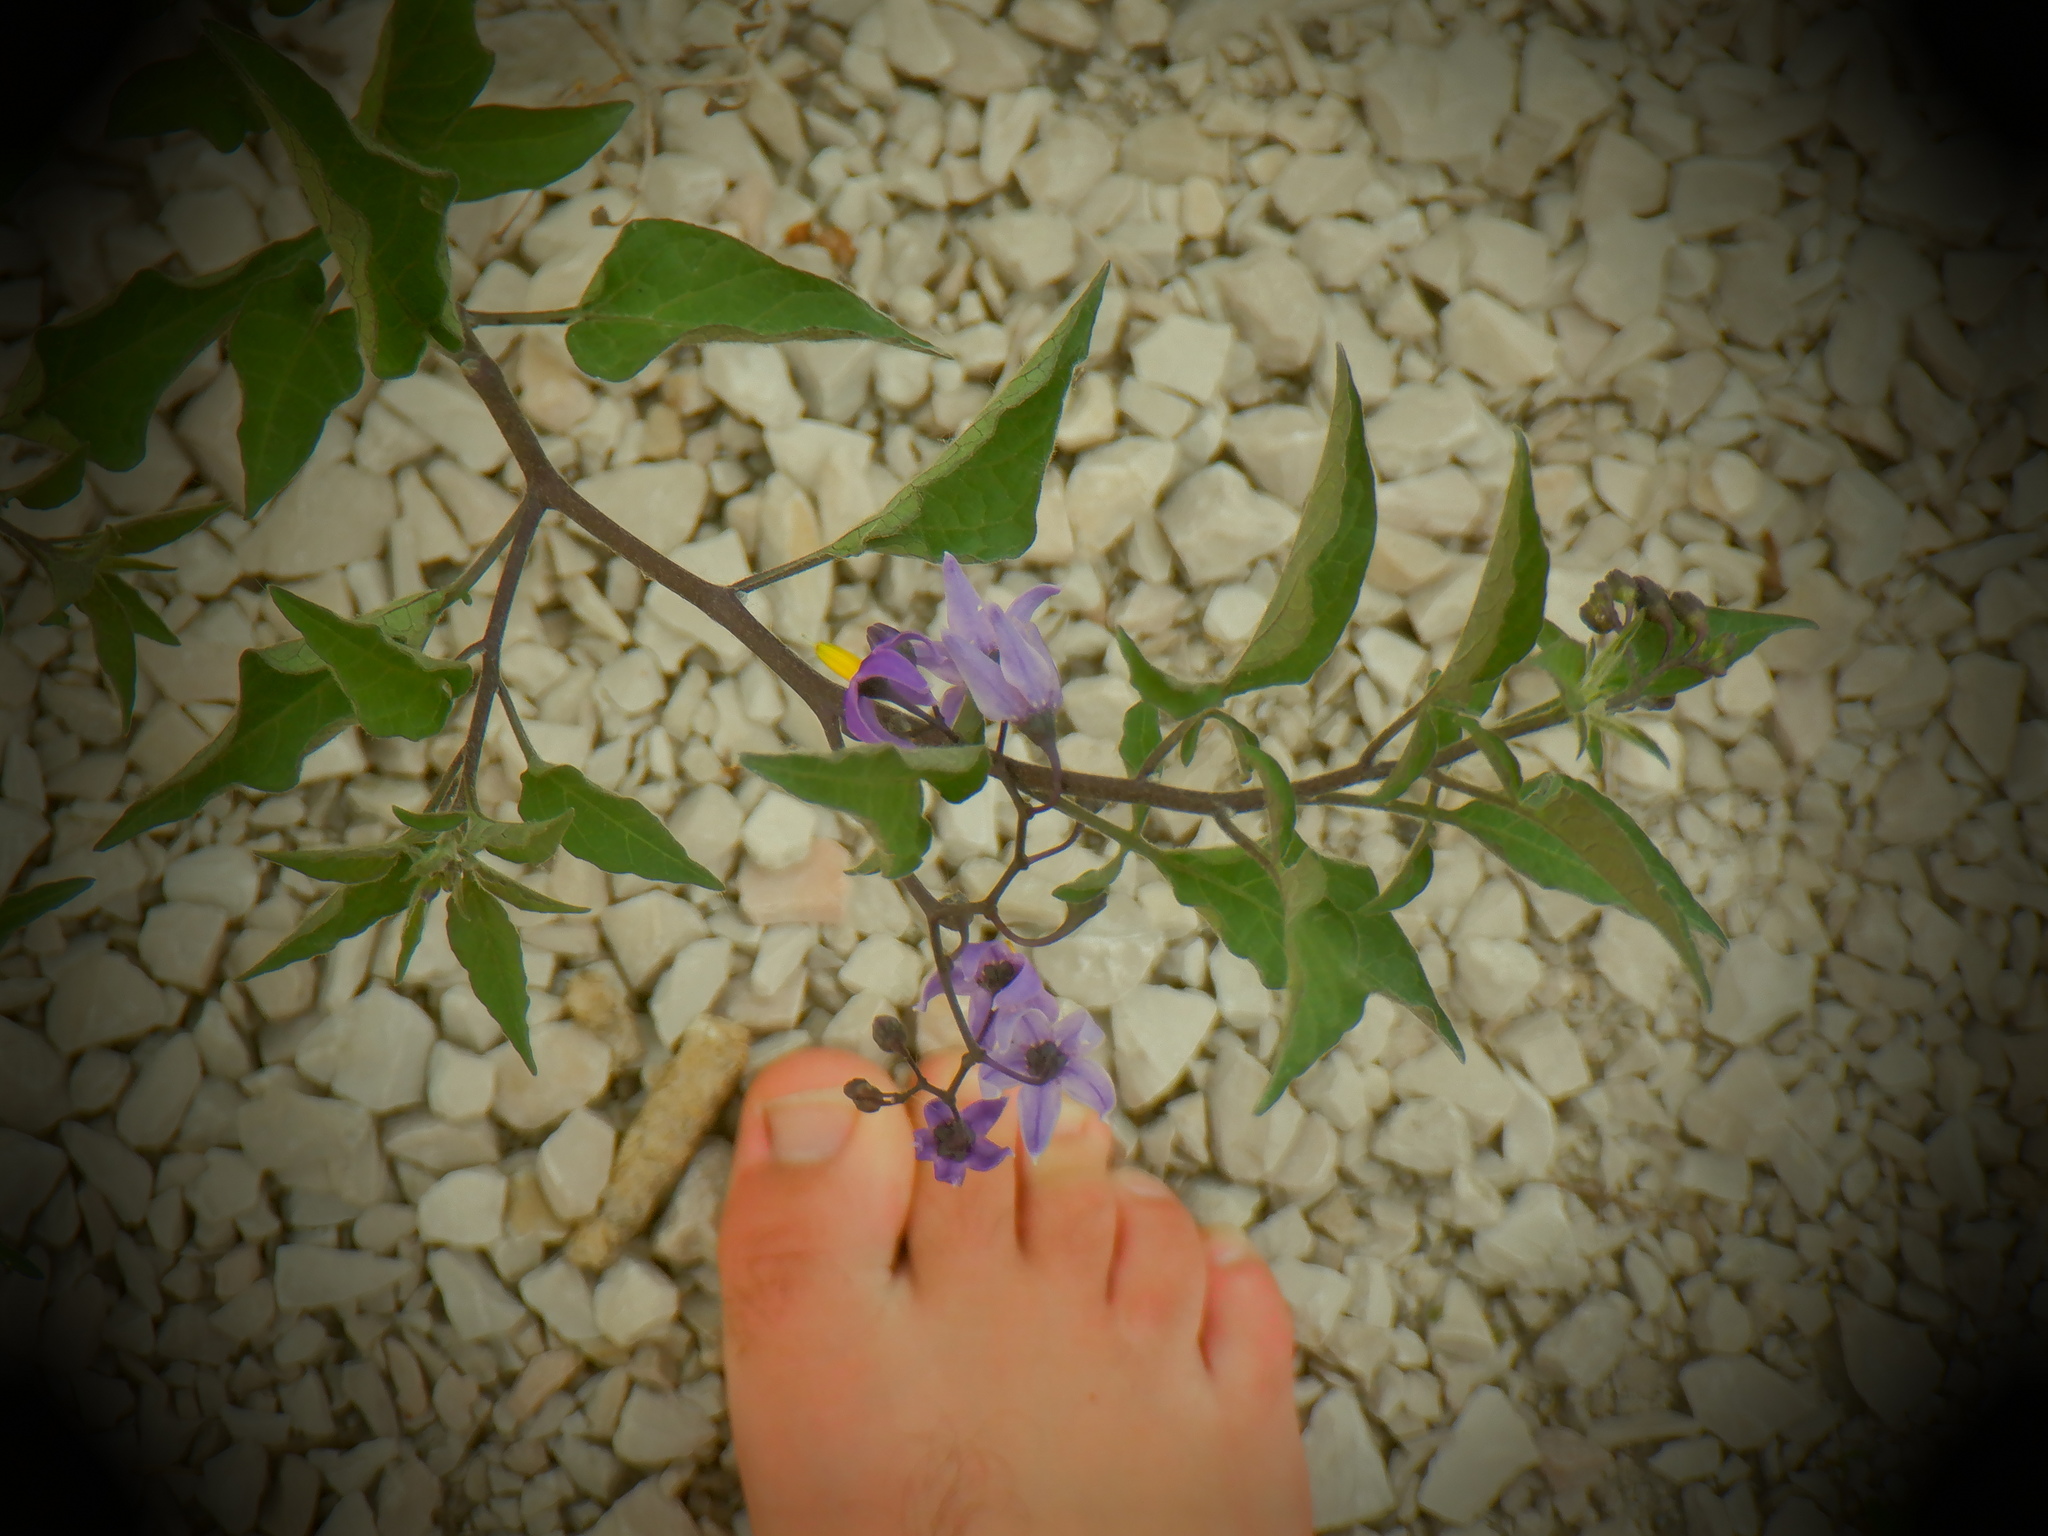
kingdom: Plantae
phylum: Tracheophyta
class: Magnoliopsida
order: Solanales
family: Solanaceae
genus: Solanum
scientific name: Solanum dulcamara
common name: Climbing nightshade
